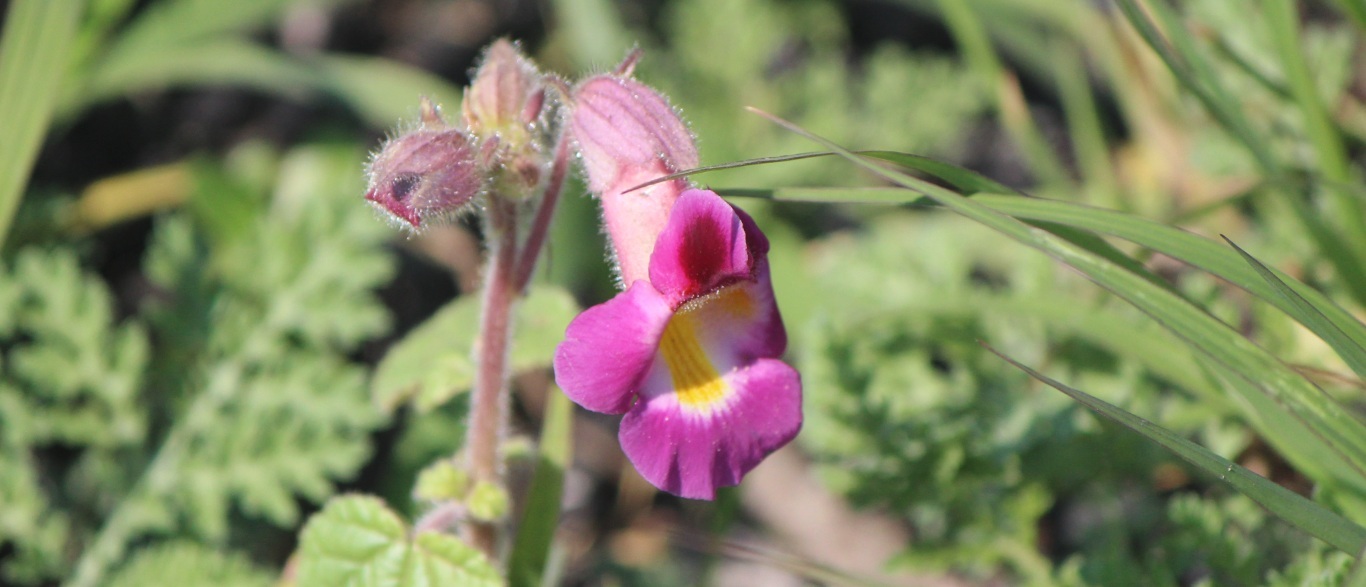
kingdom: Plantae
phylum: Tracheophyta
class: Magnoliopsida
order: Lamiales
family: Martyniaceae
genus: Proboscidea
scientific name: Proboscidea louisianica
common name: Elephant tusks
